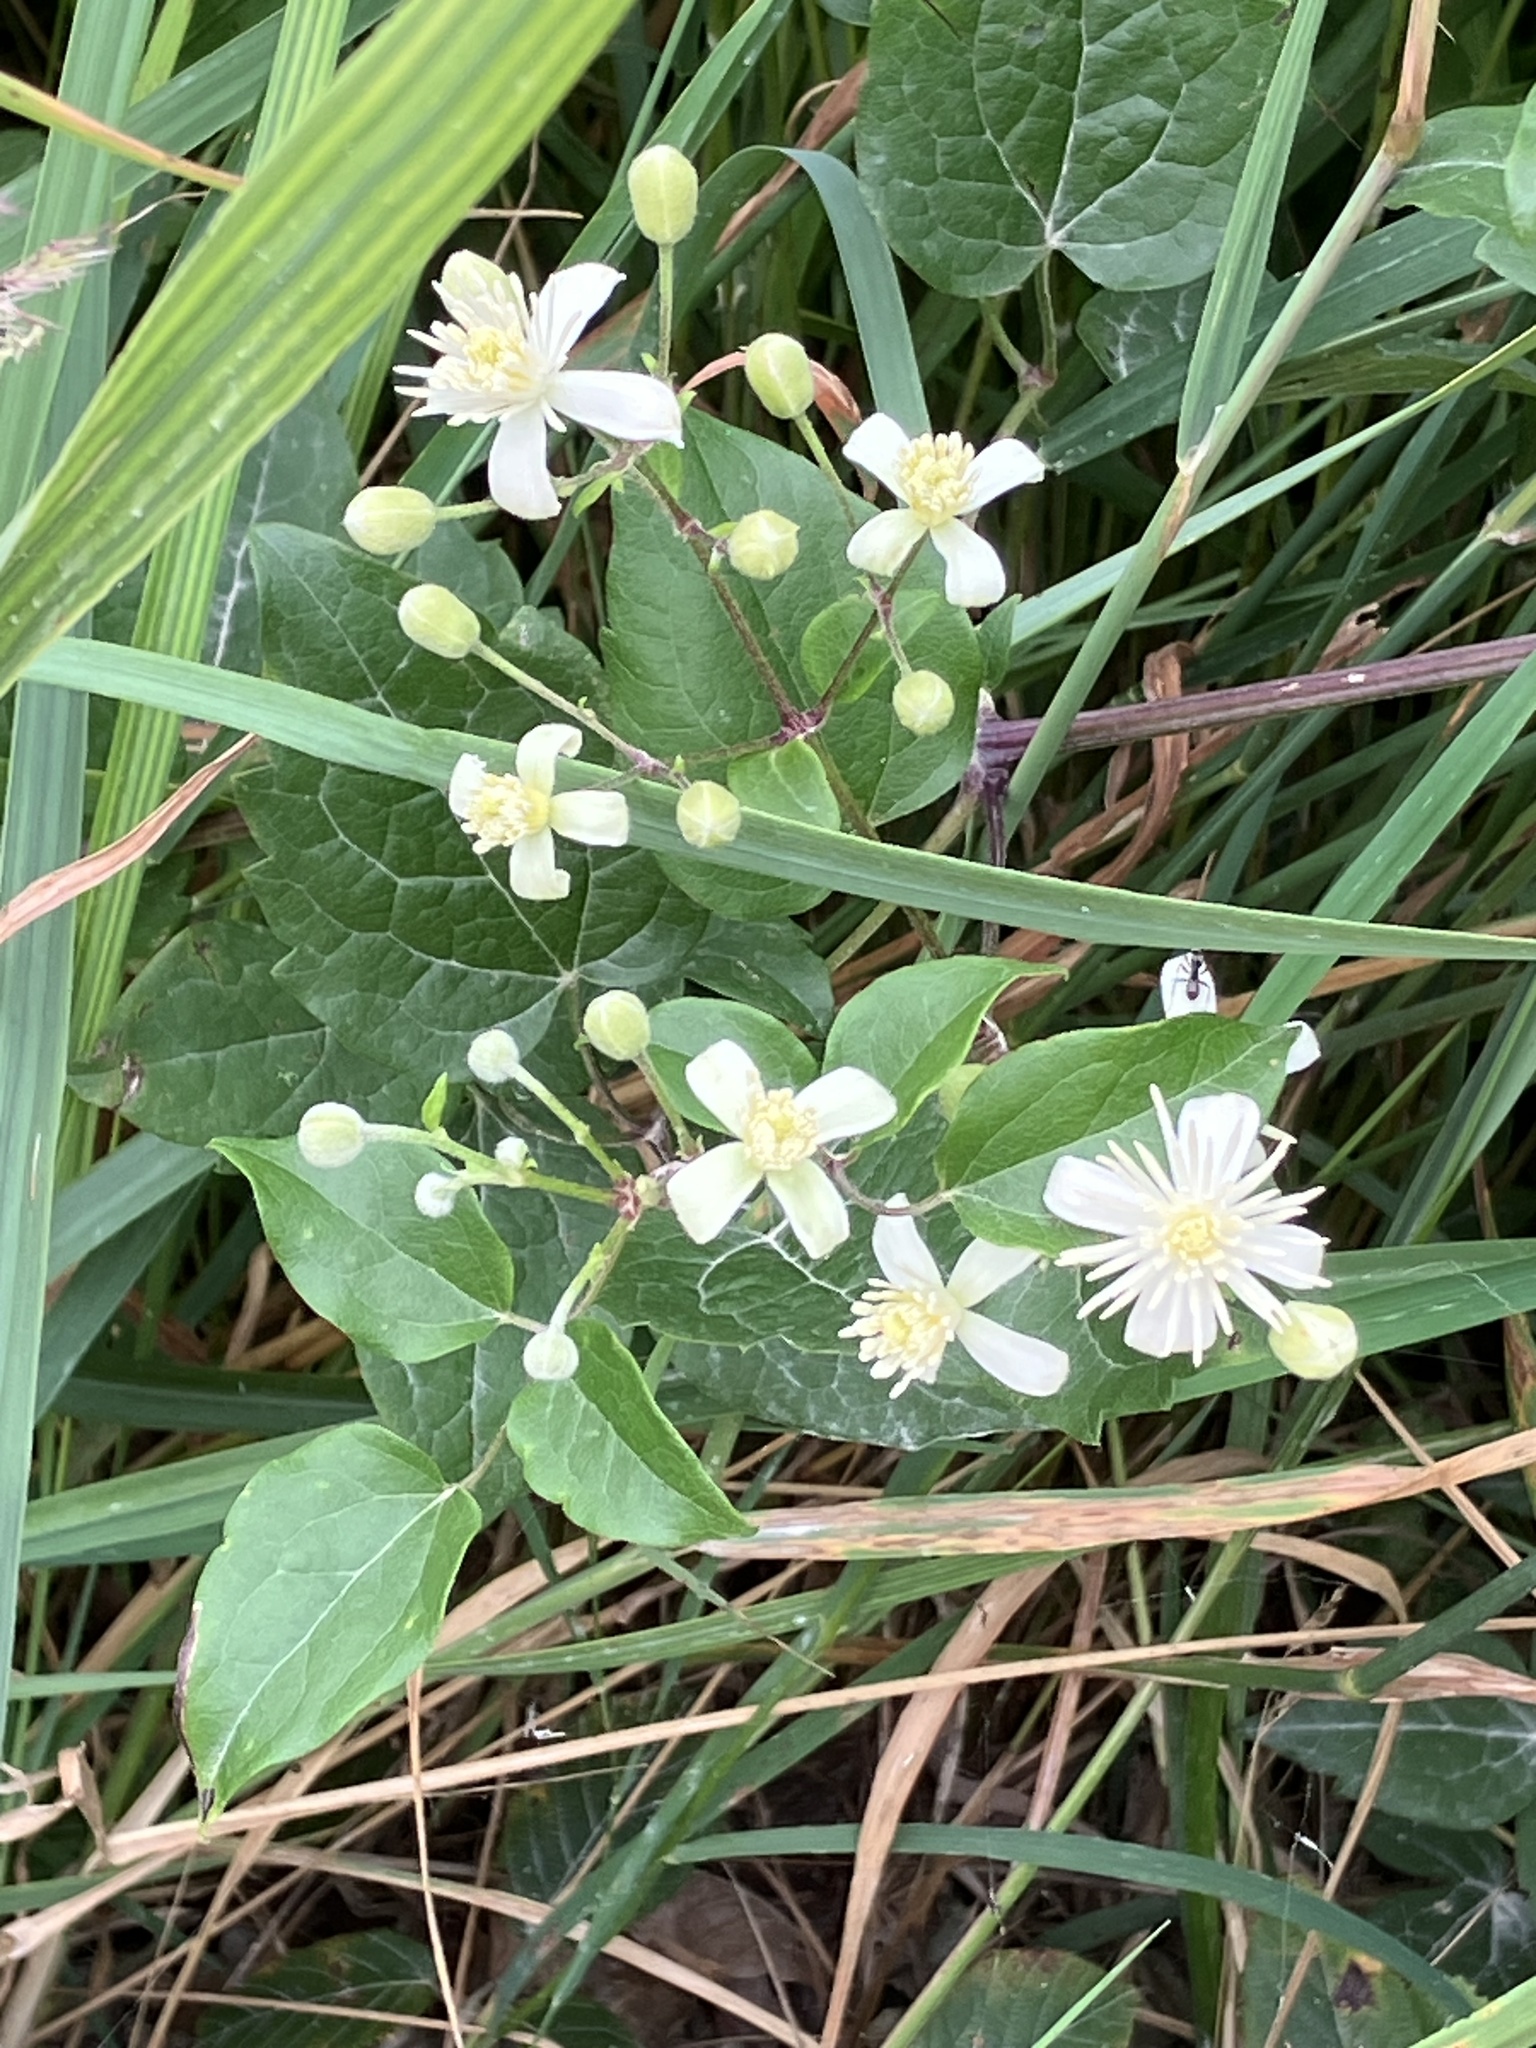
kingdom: Plantae
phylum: Tracheophyta
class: Magnoliopsida
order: Ranunculales
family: Ranunculaceae
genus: Clematis
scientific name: Clematis vitalba
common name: Evergreen clematis
